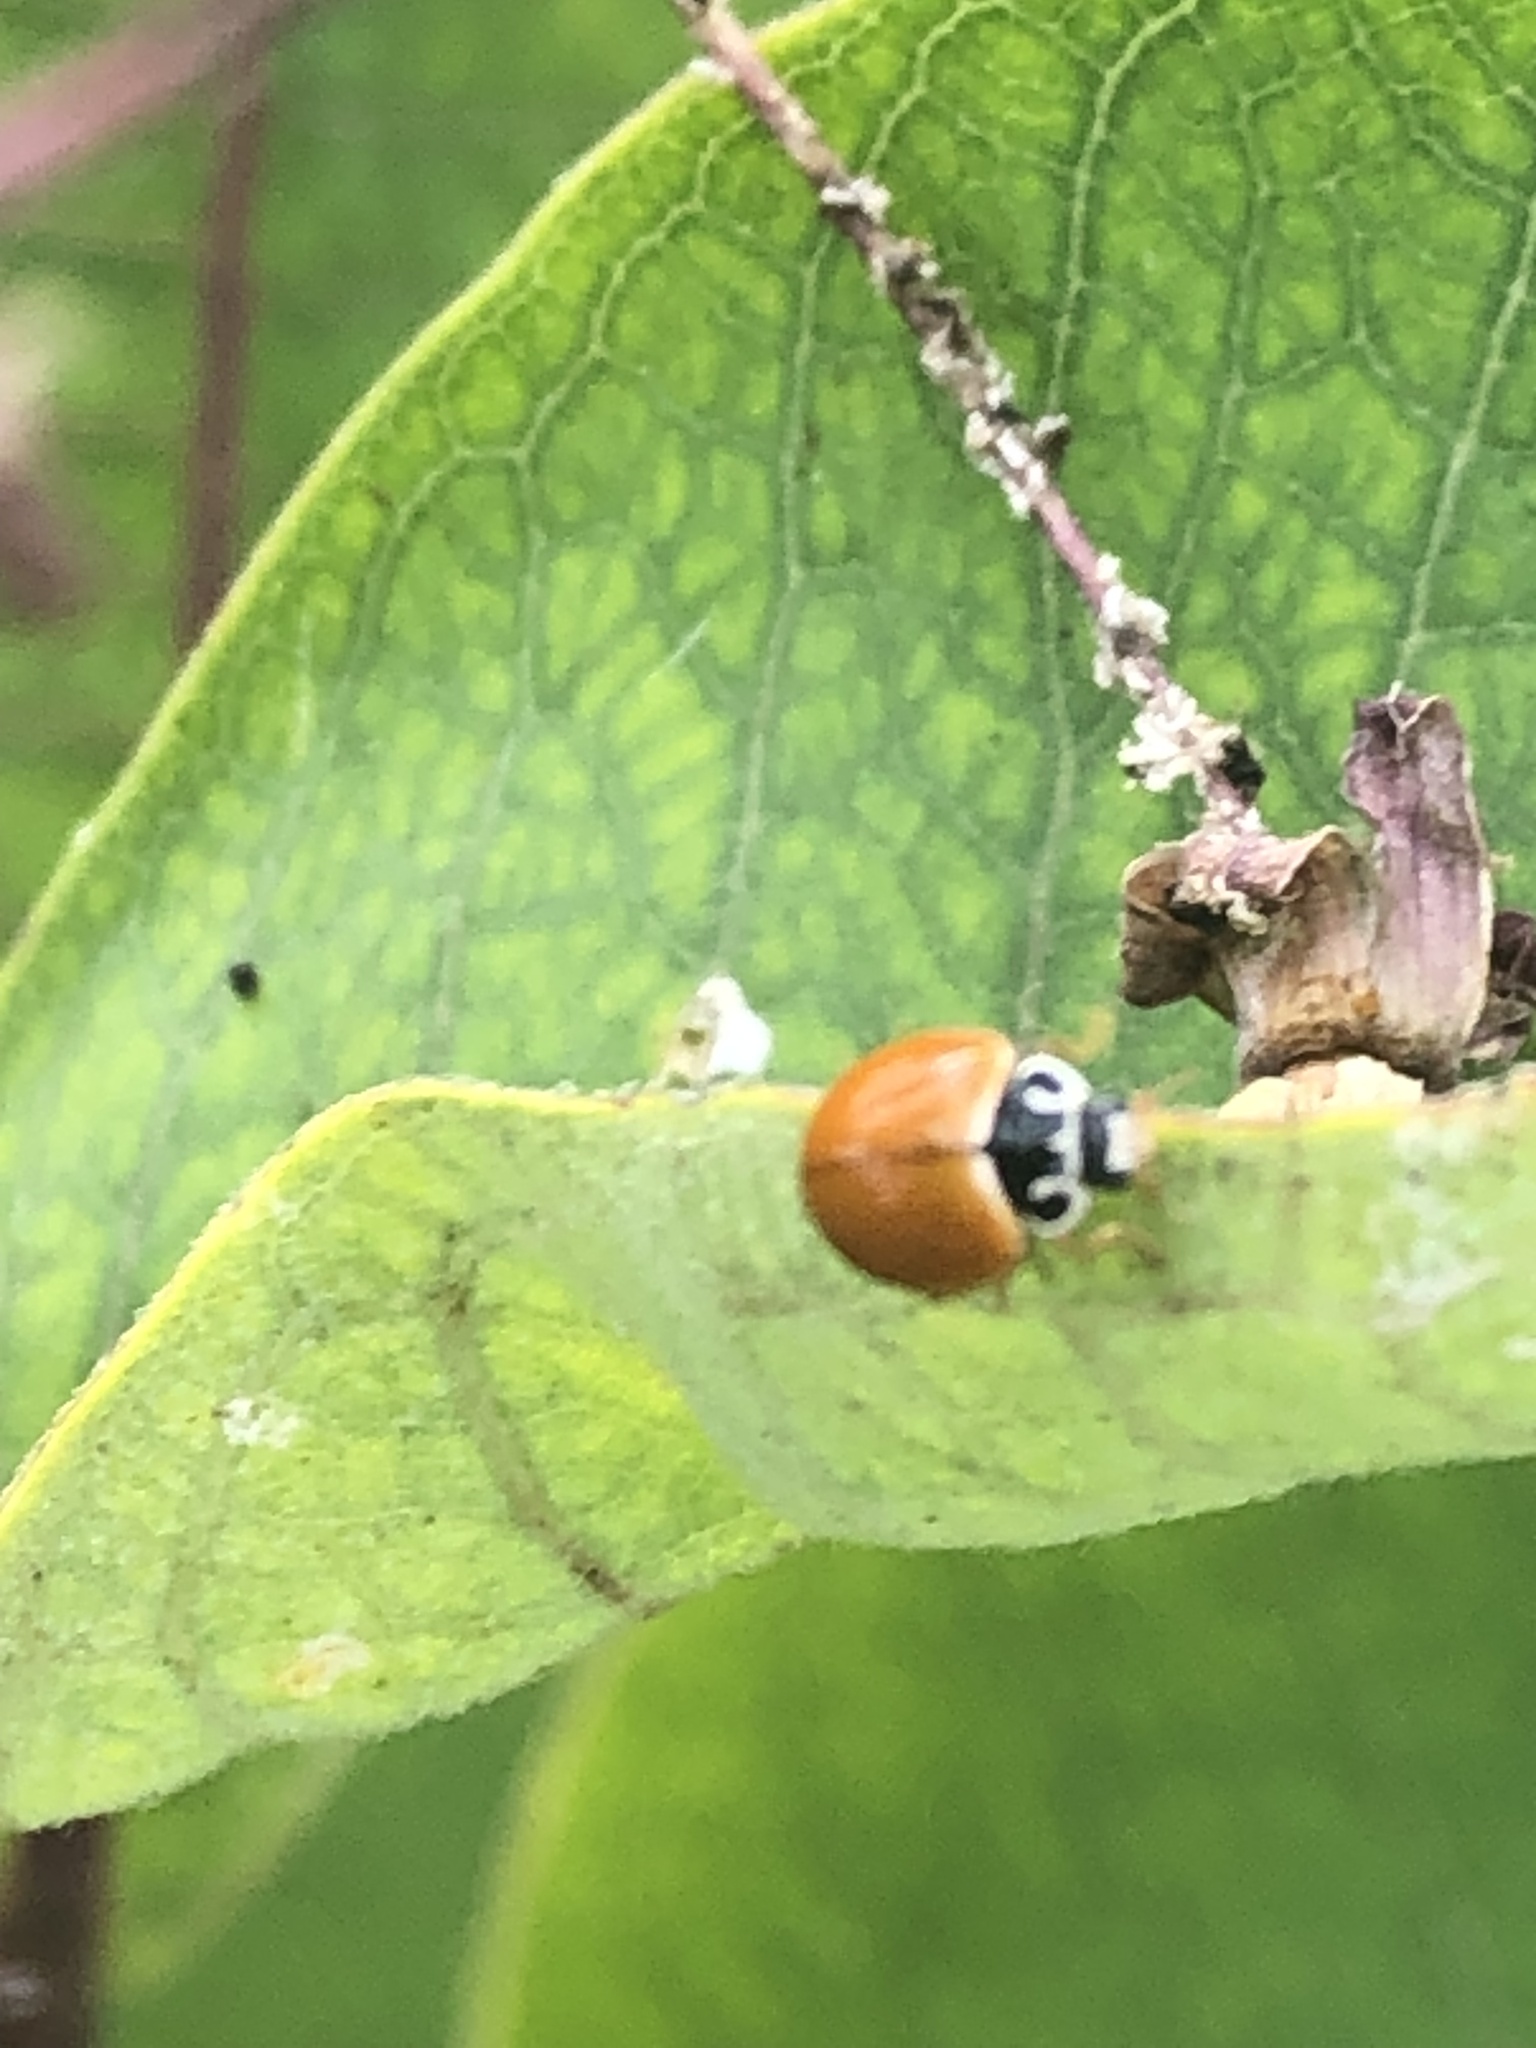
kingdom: Animalia
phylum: Arthropoda
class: Insecta
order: Coleoptera
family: Coccinellidae
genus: Cycloneda
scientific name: Cycloneda munda
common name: Polished lady beetle
